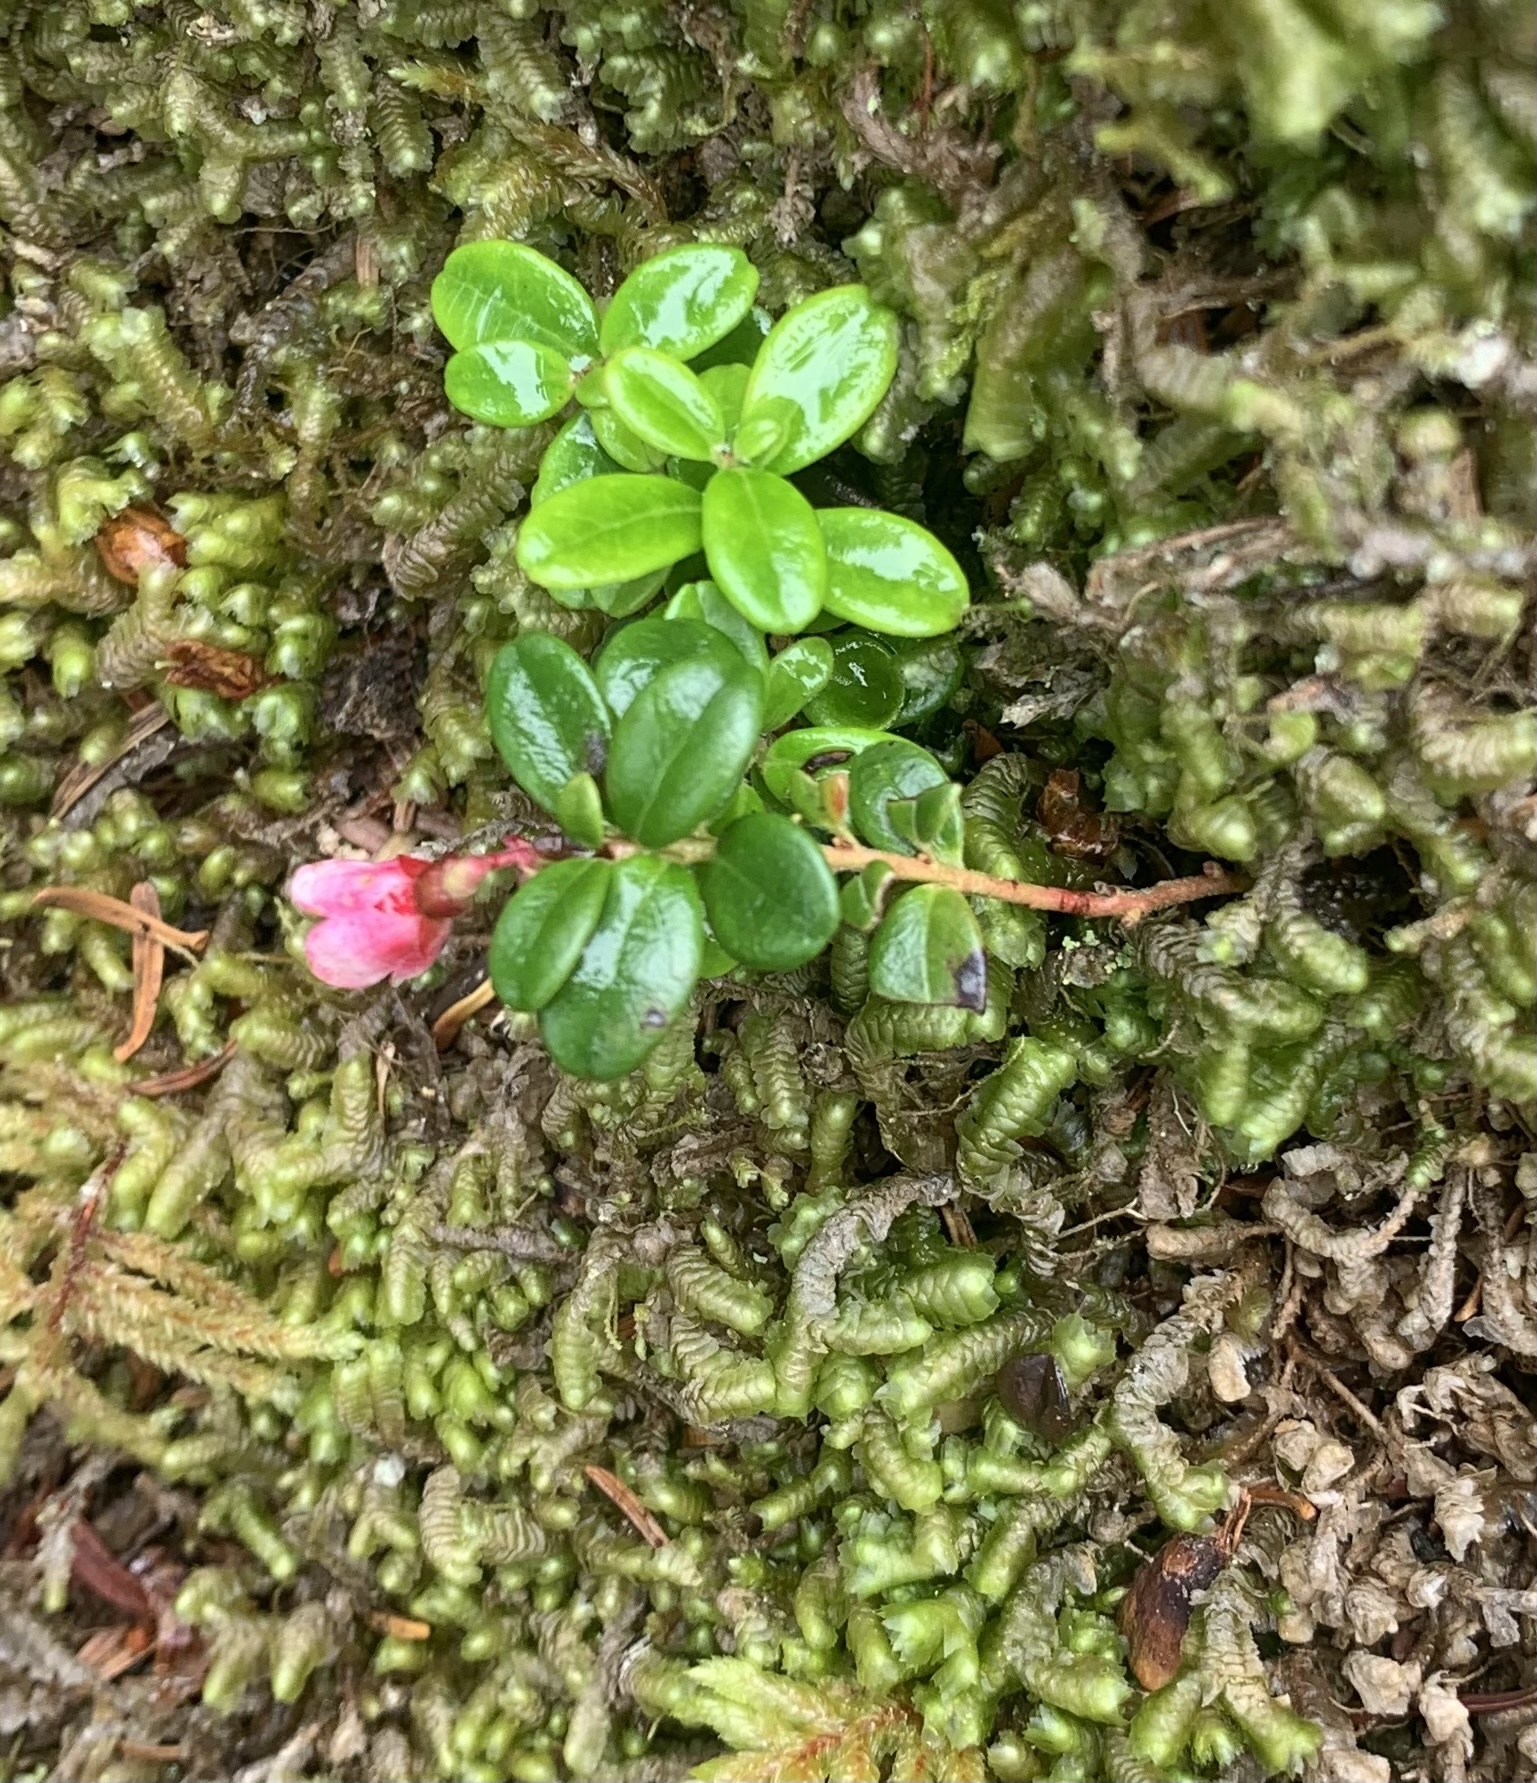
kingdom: Plantae
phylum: Tracheophyta
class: Magnoliopsida
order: Ericales
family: Ericaceae
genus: Vaccinium
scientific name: Vaccinium vitis-idaea
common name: Cowberry
